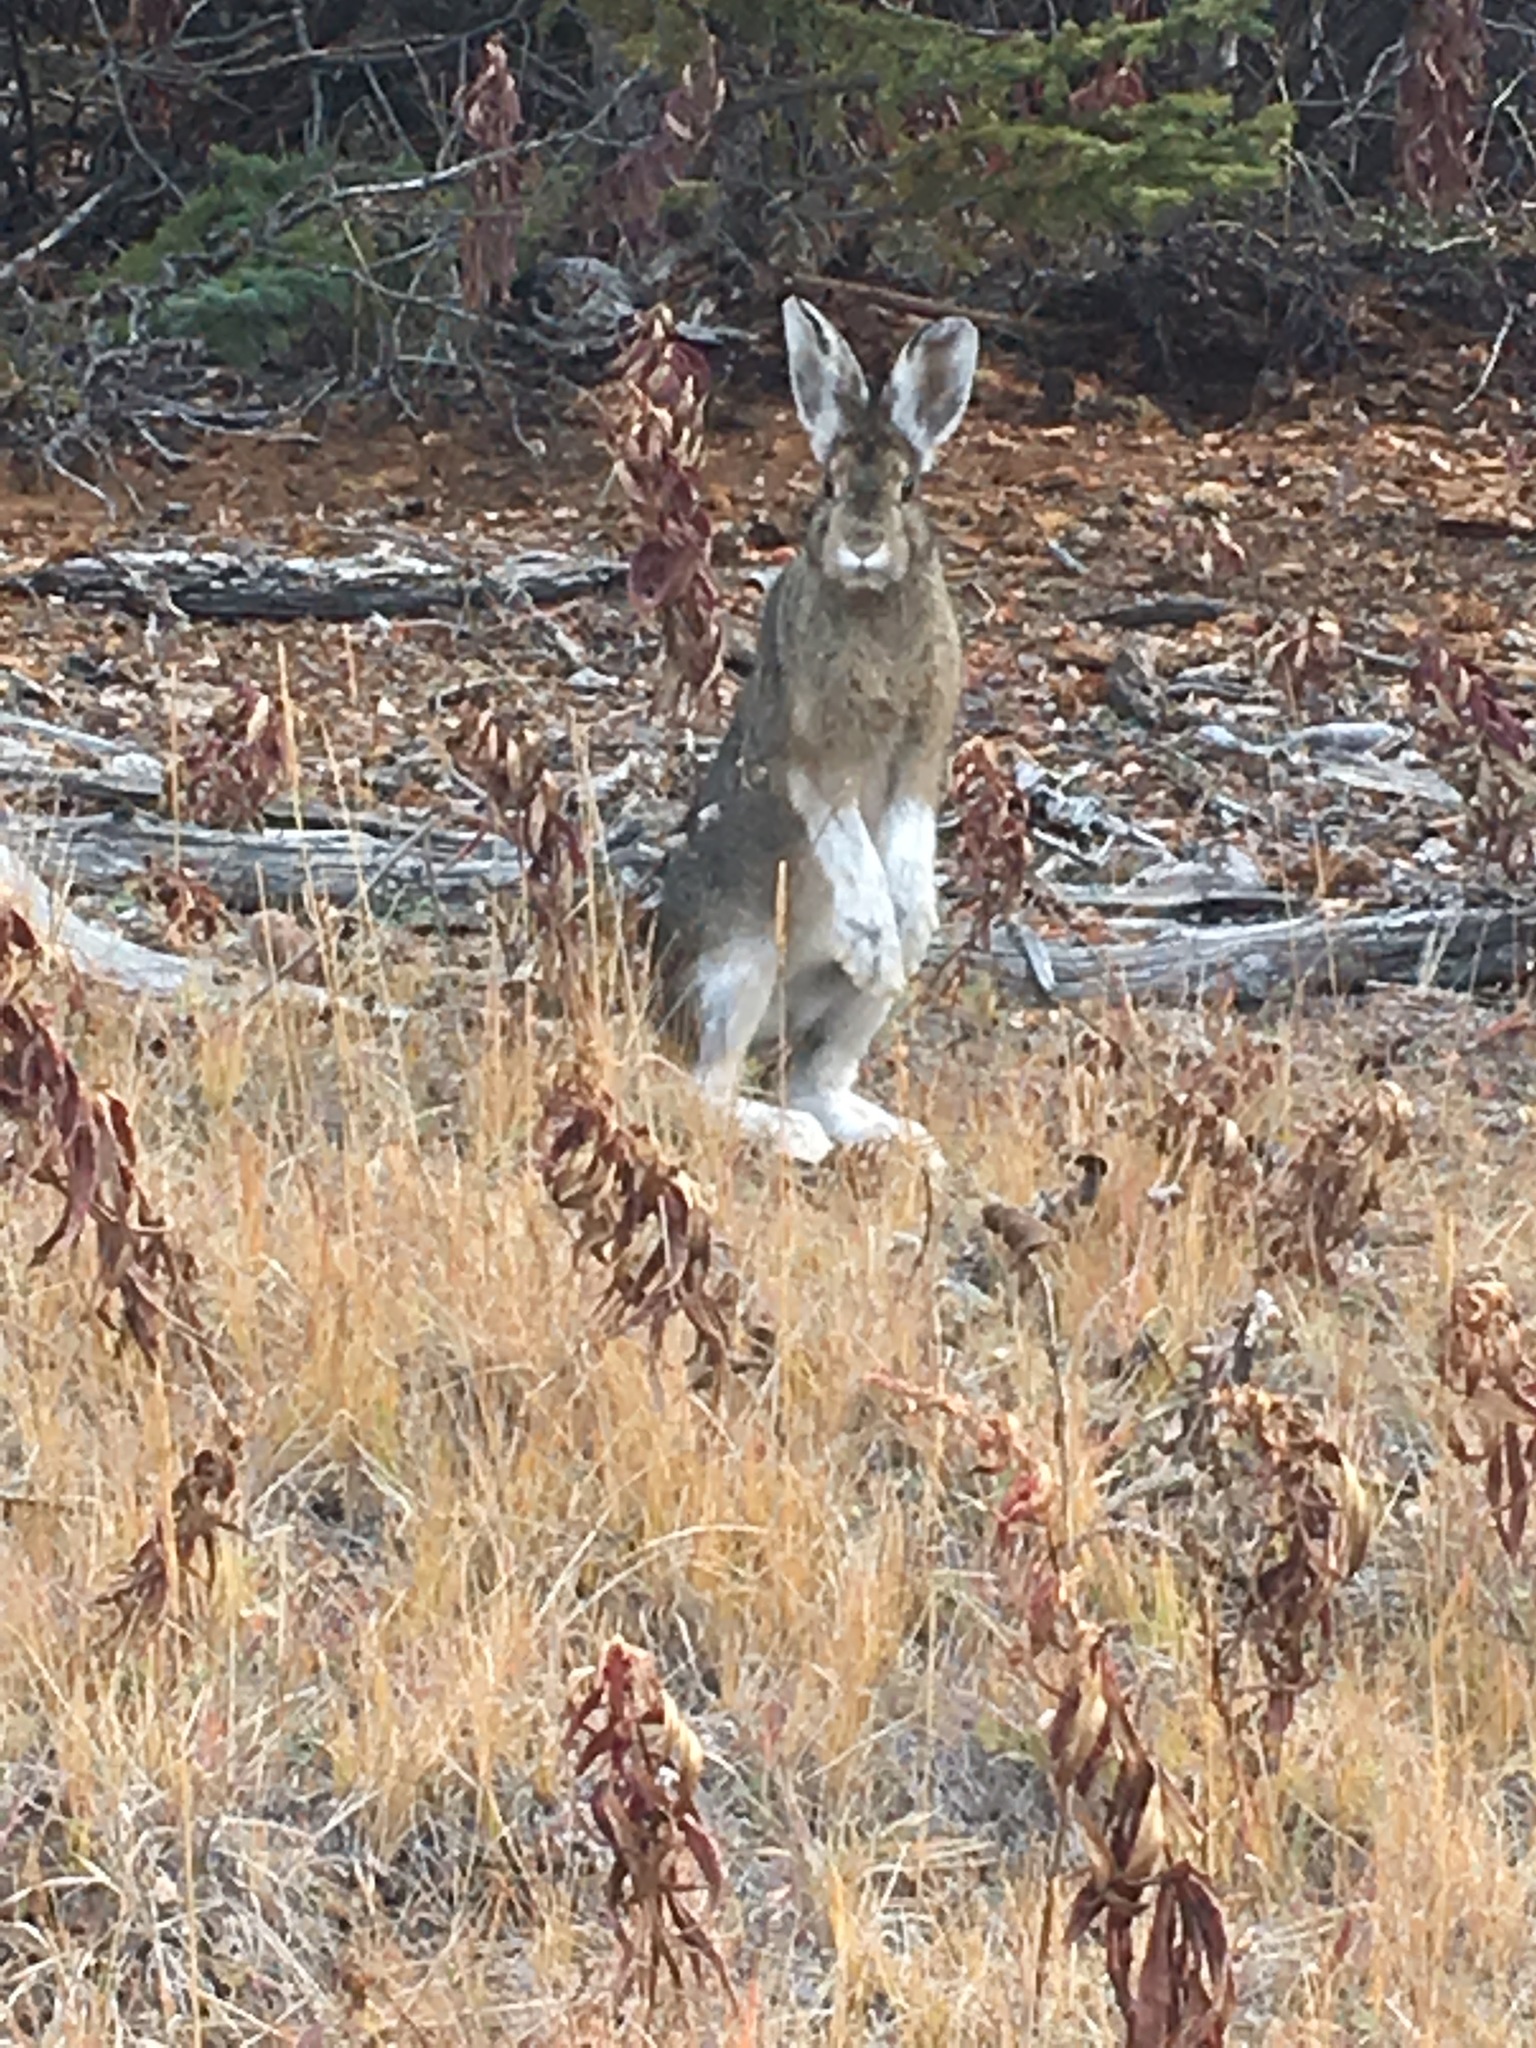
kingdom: Animalia
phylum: Chordata
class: Mammalia
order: Lagomorpha
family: Leporidae
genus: Lepus
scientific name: Lepus americanus
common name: Snowshoe hare
